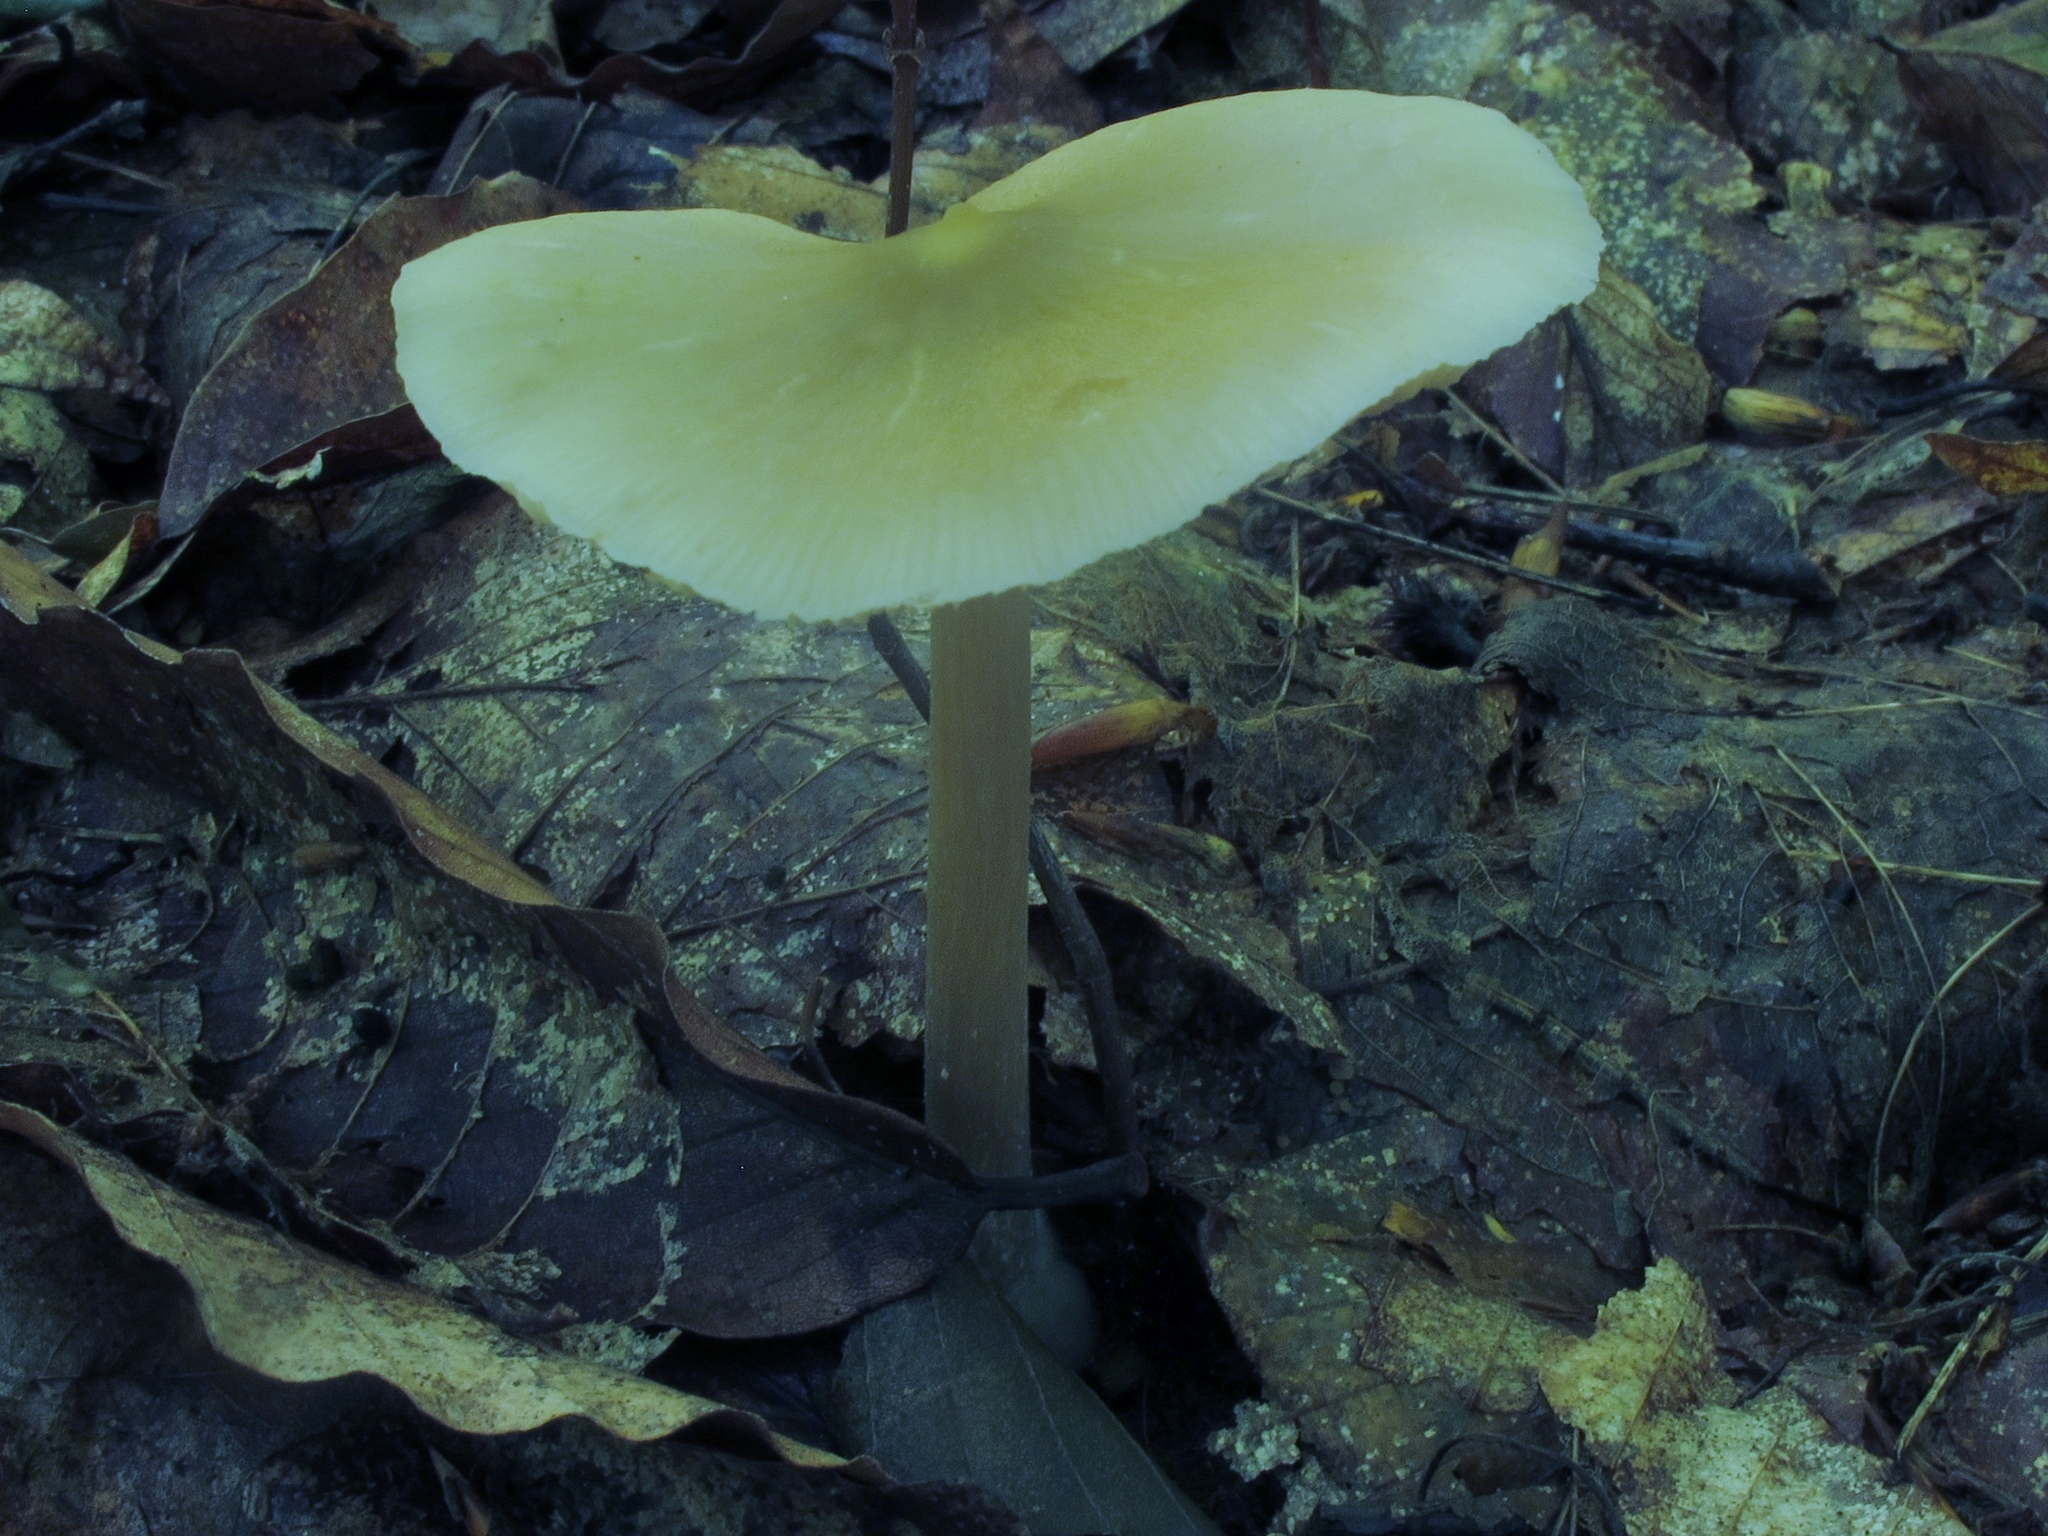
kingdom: Fungi
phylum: Basidiomycota
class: Agaricomycetes
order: Agaricales
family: Entolomataceae
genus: Entoloma
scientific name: Entoloma strictius
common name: Straight-stalked entoloma
